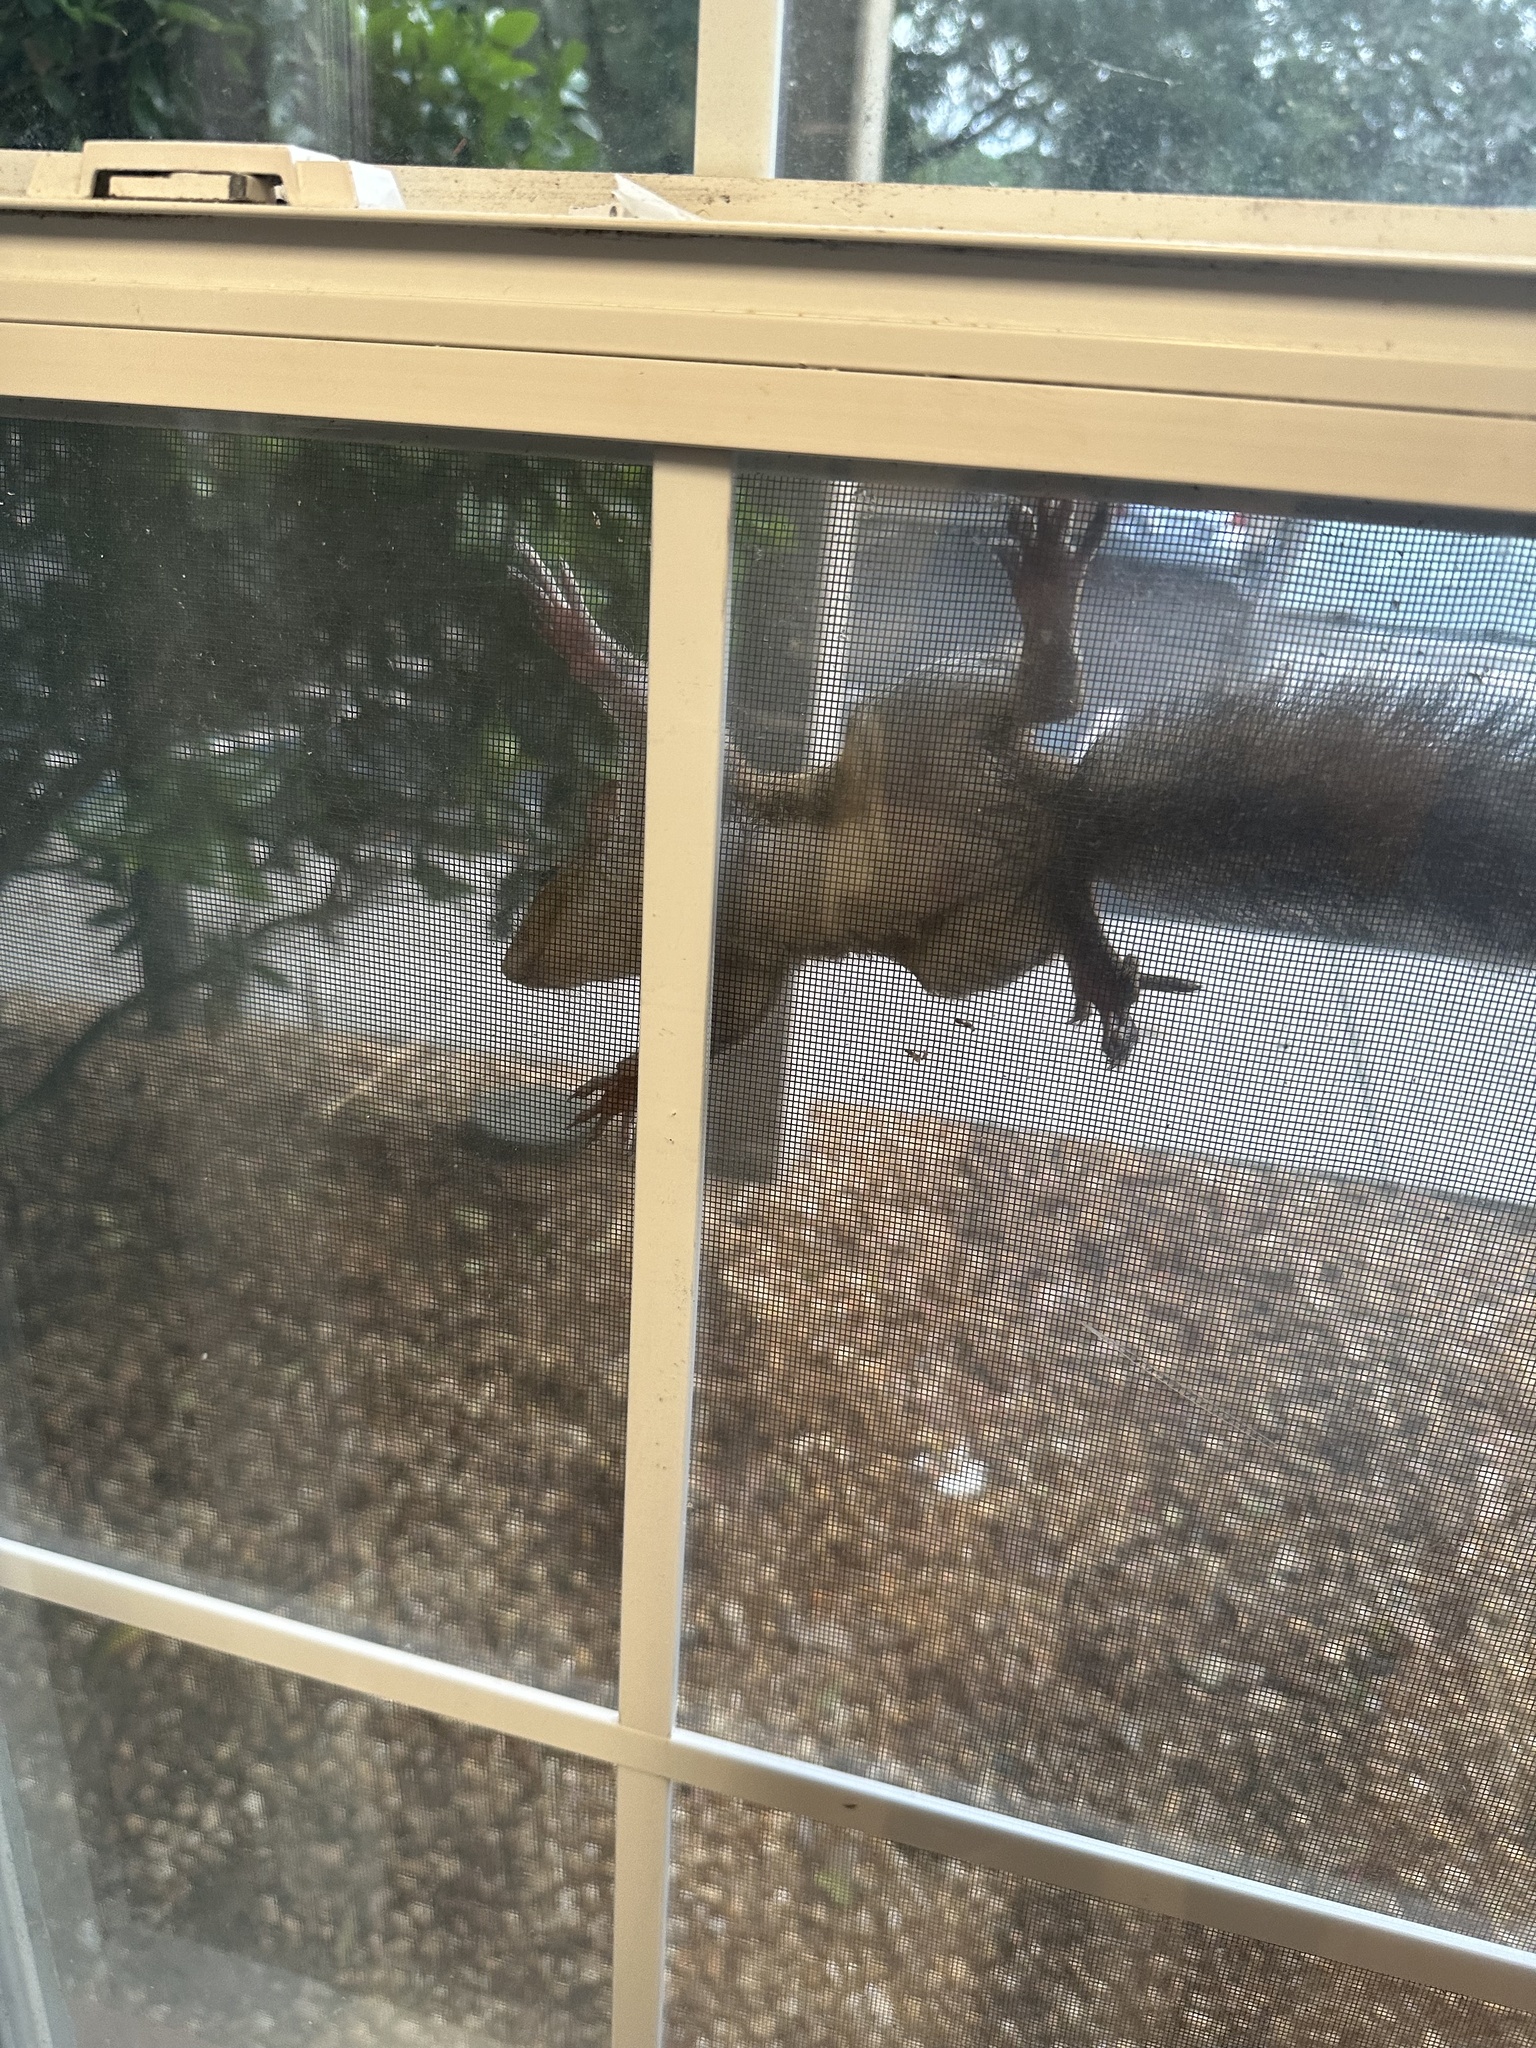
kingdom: Animalia
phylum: Chordata
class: Mammalia
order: Rodentia
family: Sciuridae
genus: Sciurus
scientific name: Sciurus carolinensis
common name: Eastern gray squirrel
